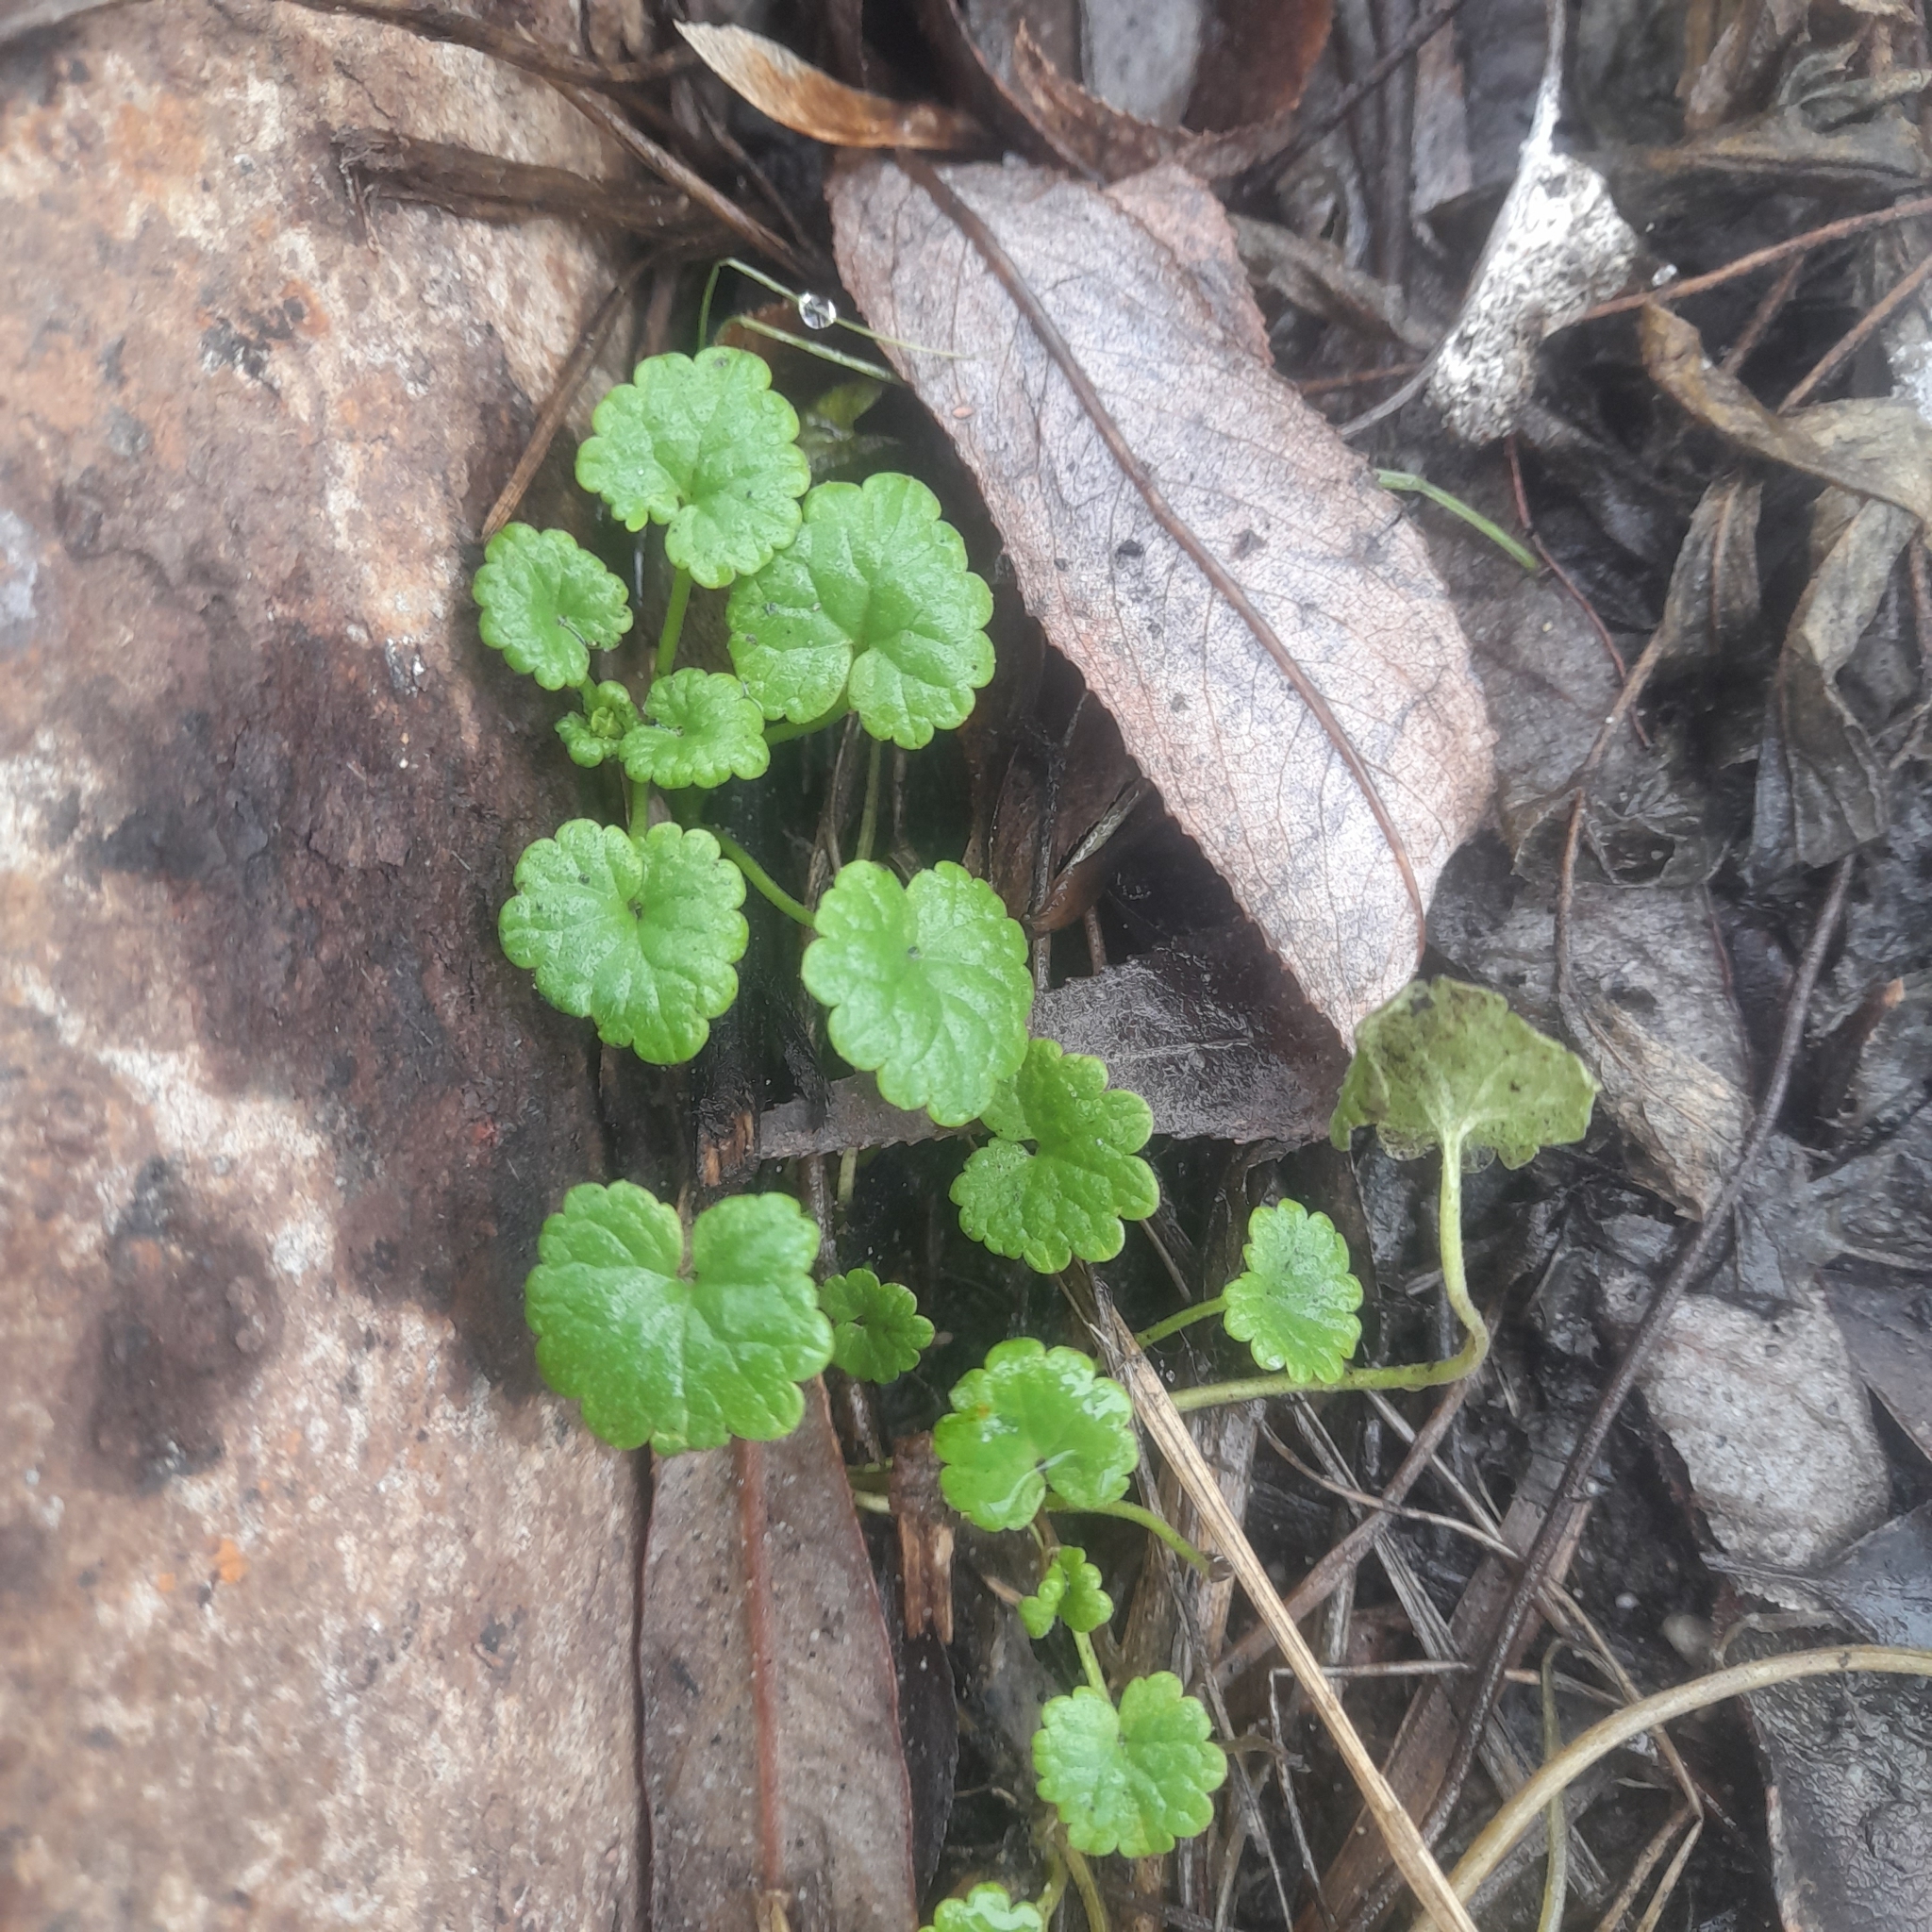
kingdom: Plantae
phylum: Tracheophyta
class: Magnoliopsida
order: Lamiales
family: Lamiaceae
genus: Glechoma
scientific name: Glechoma hederacea
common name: Ground ivy
